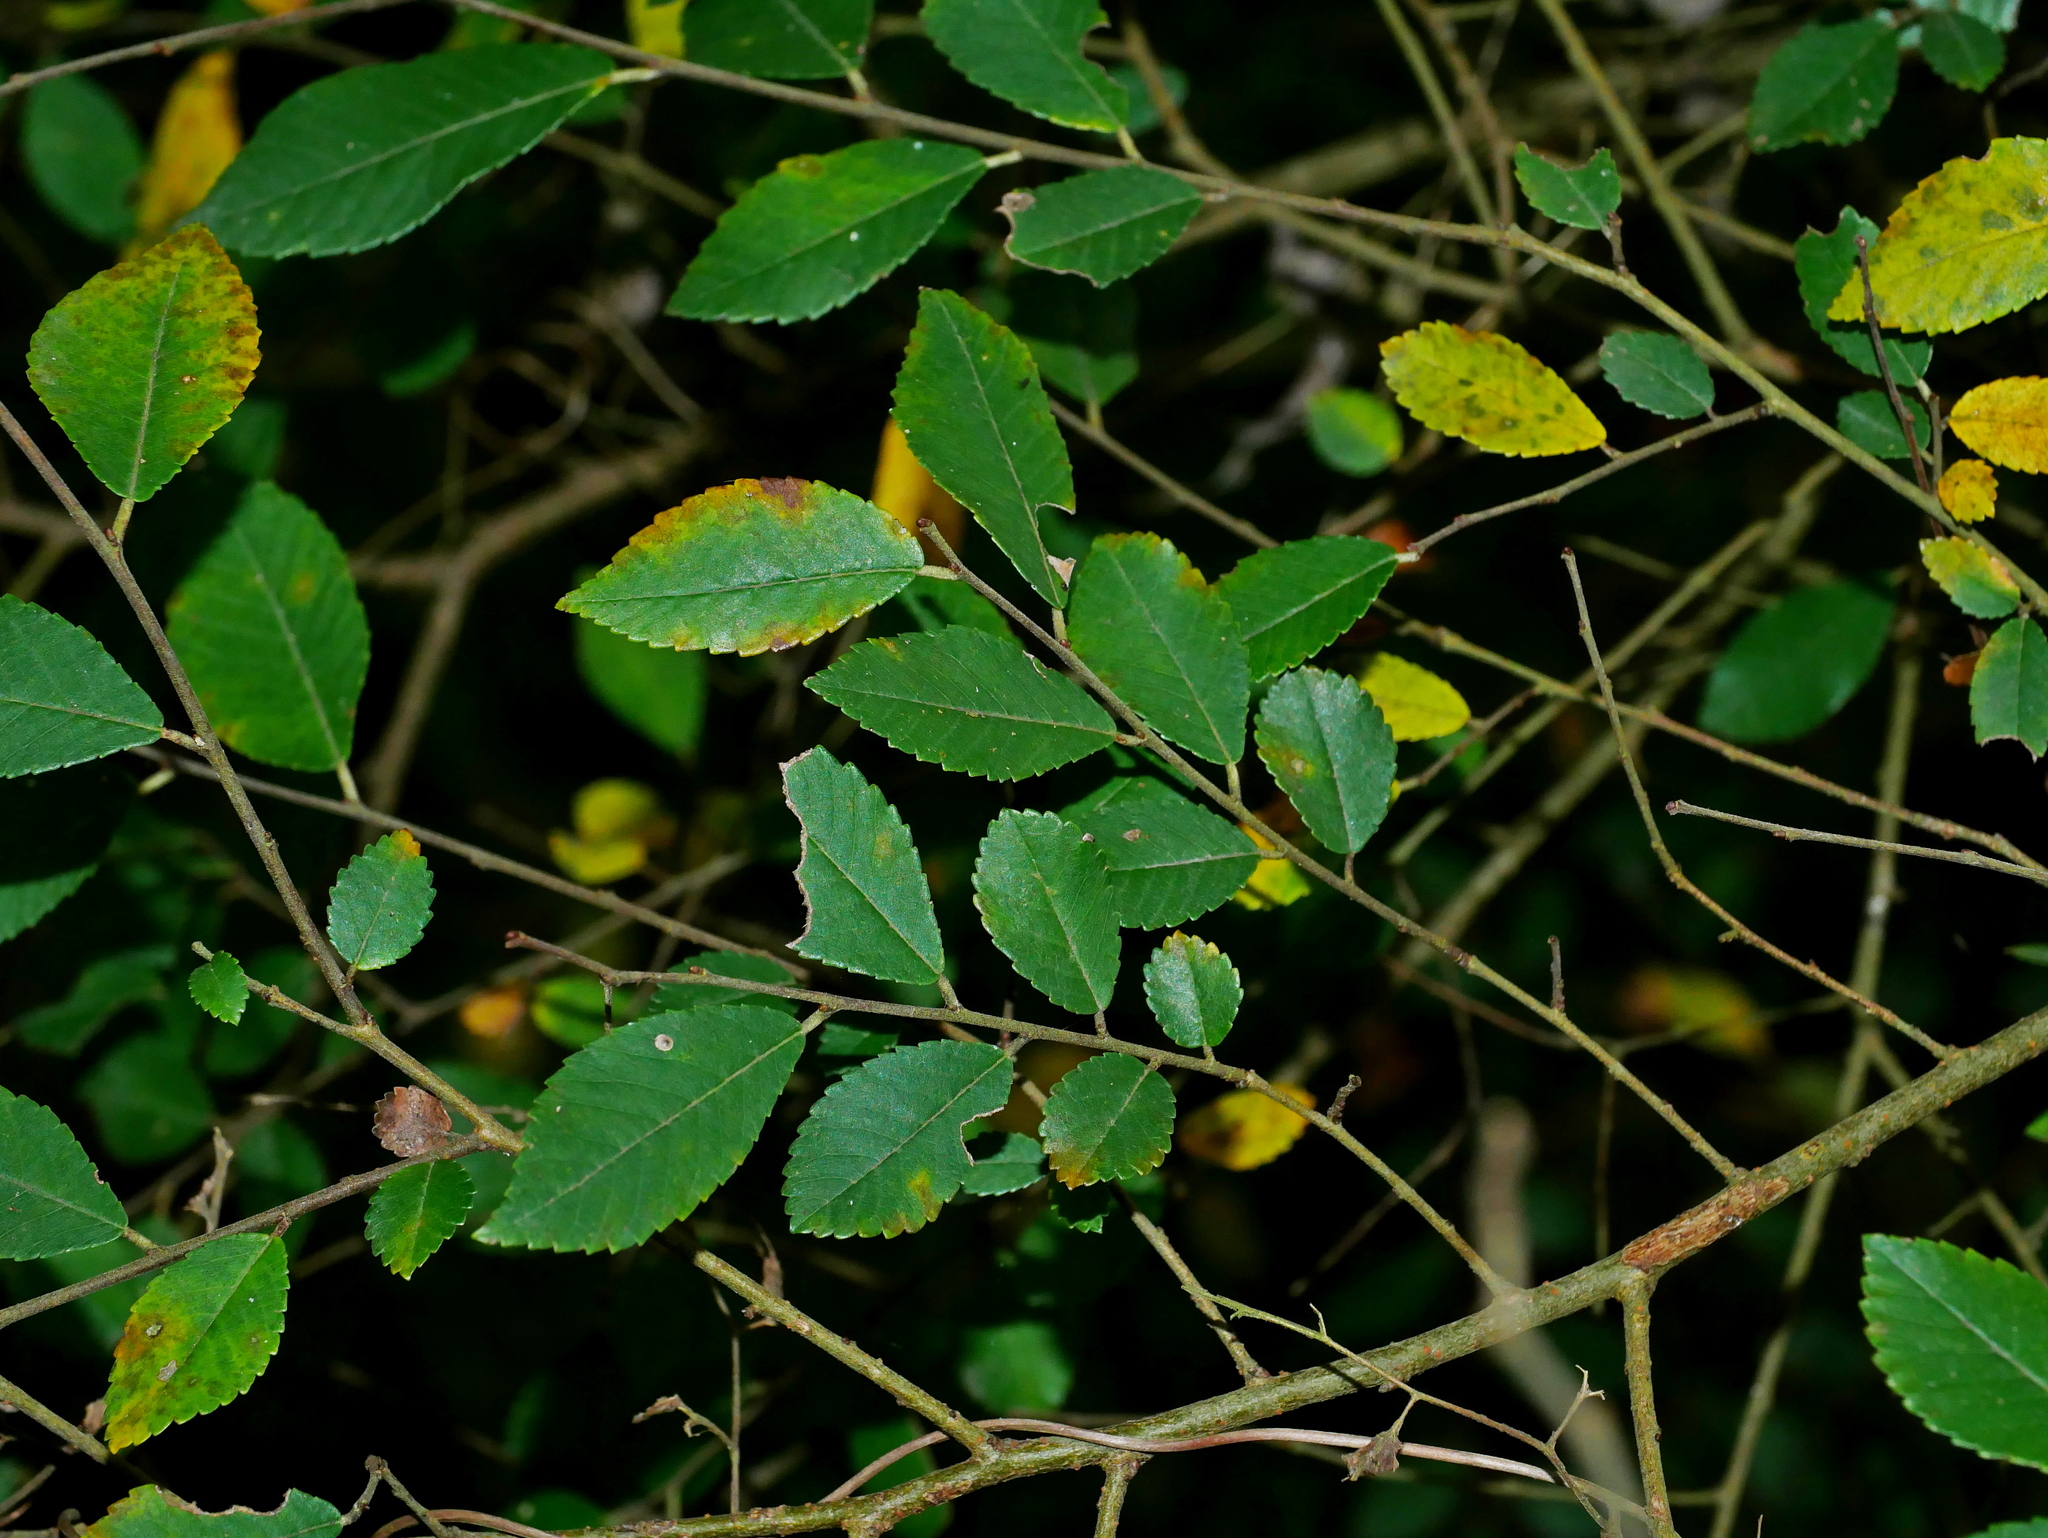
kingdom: Plantae
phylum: Tracheophyta
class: Magnoliopsida
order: Rosales
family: Ulmaceae
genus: Ulmus
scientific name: Ulmus parvifolia
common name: Chinese elm
